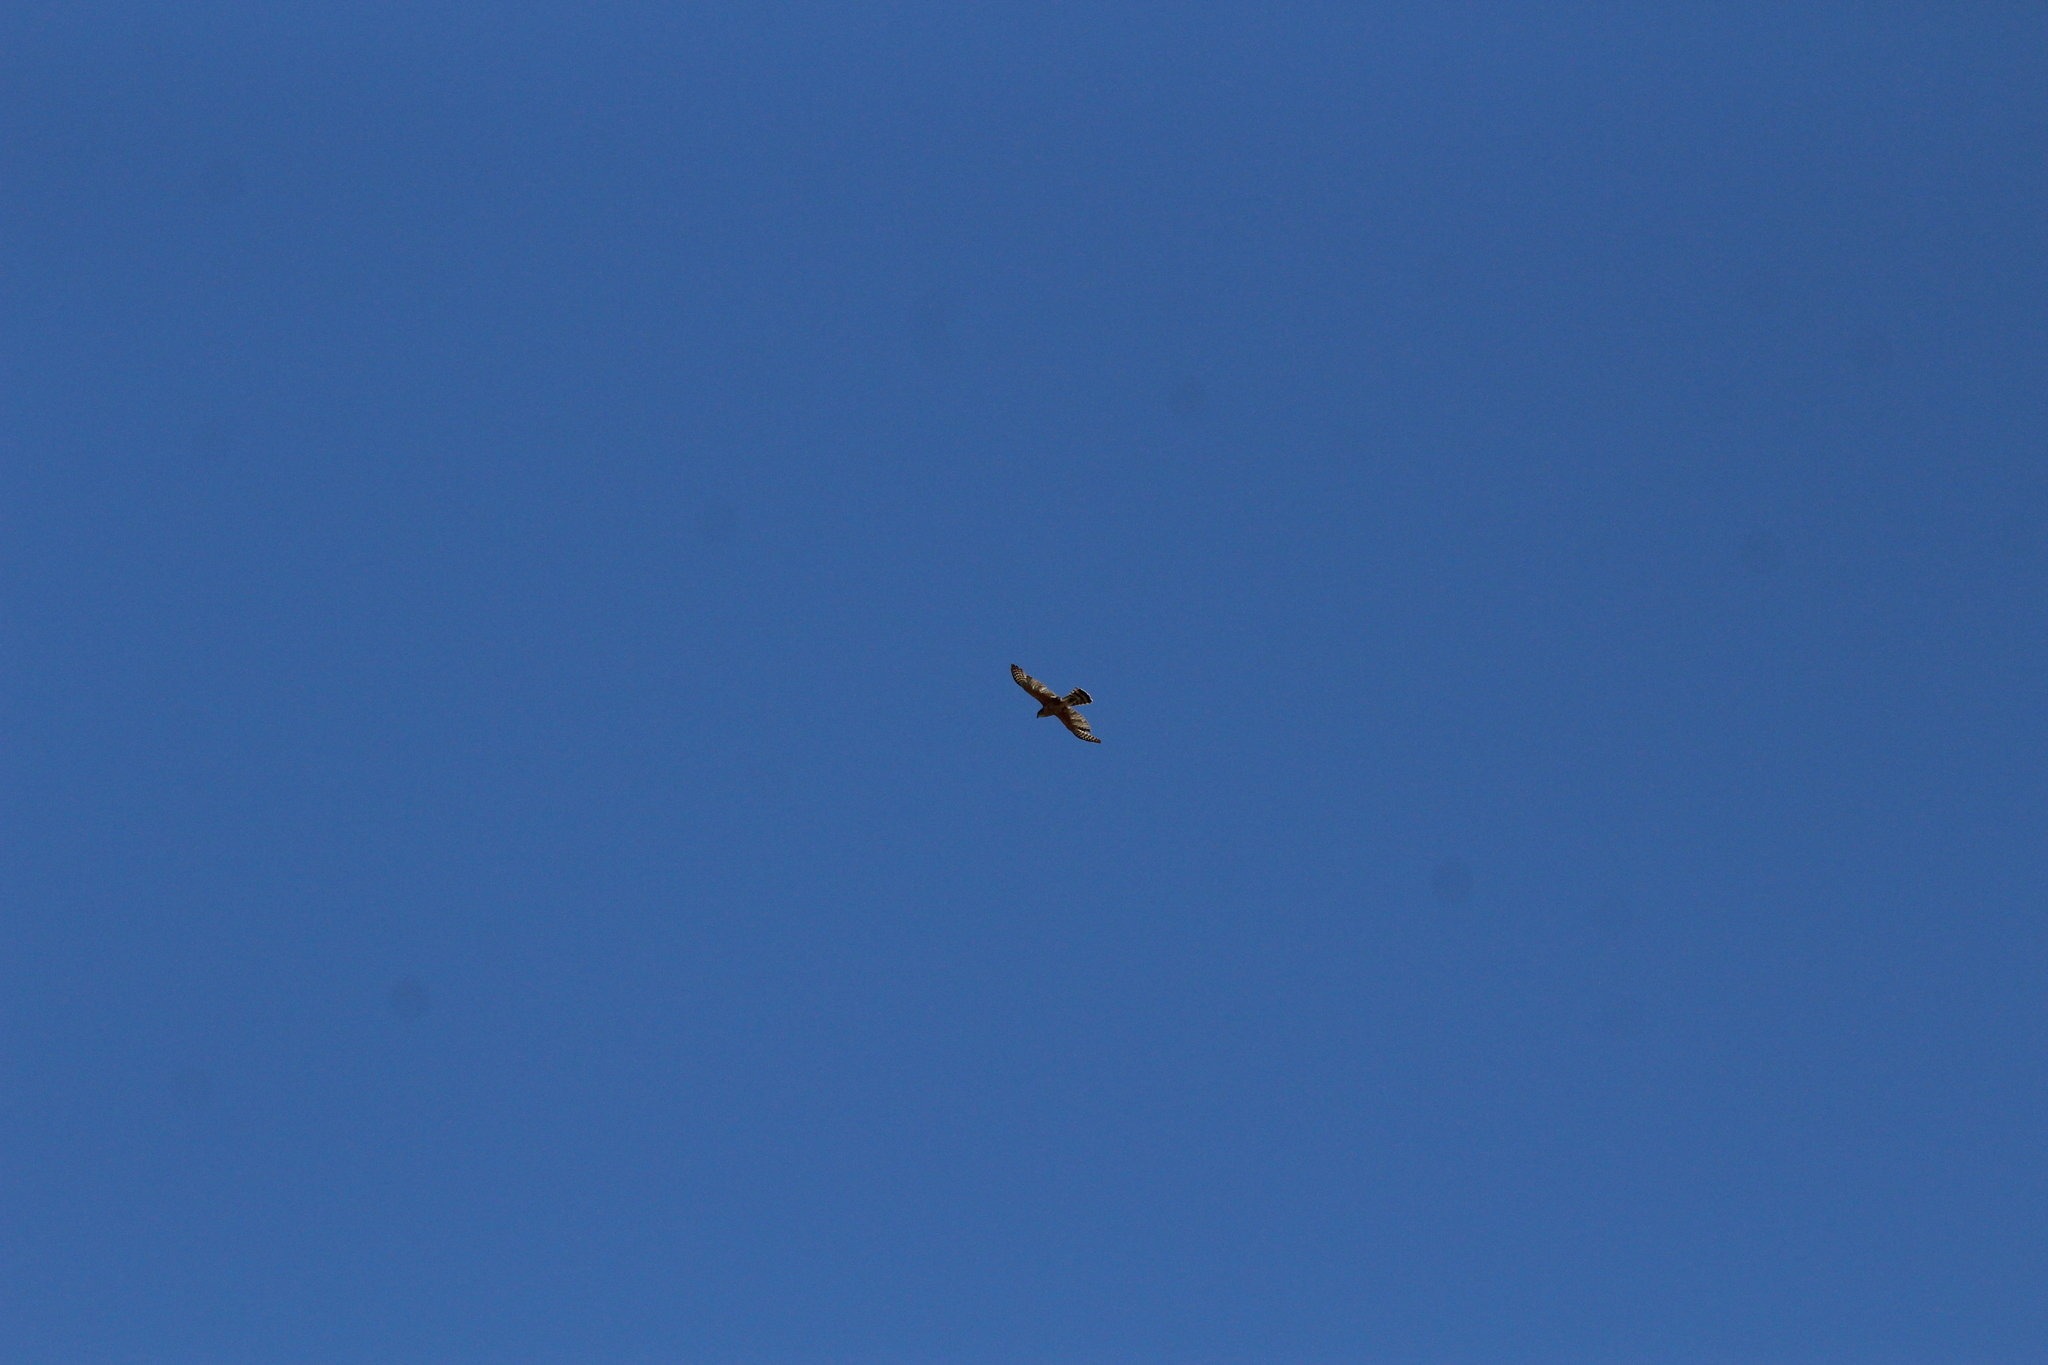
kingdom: Animalia
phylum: Chordata
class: Aves
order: Accipitriformes
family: Accipitridae
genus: Accipiter
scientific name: Accipiter cooperii
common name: Cooper's hawk
